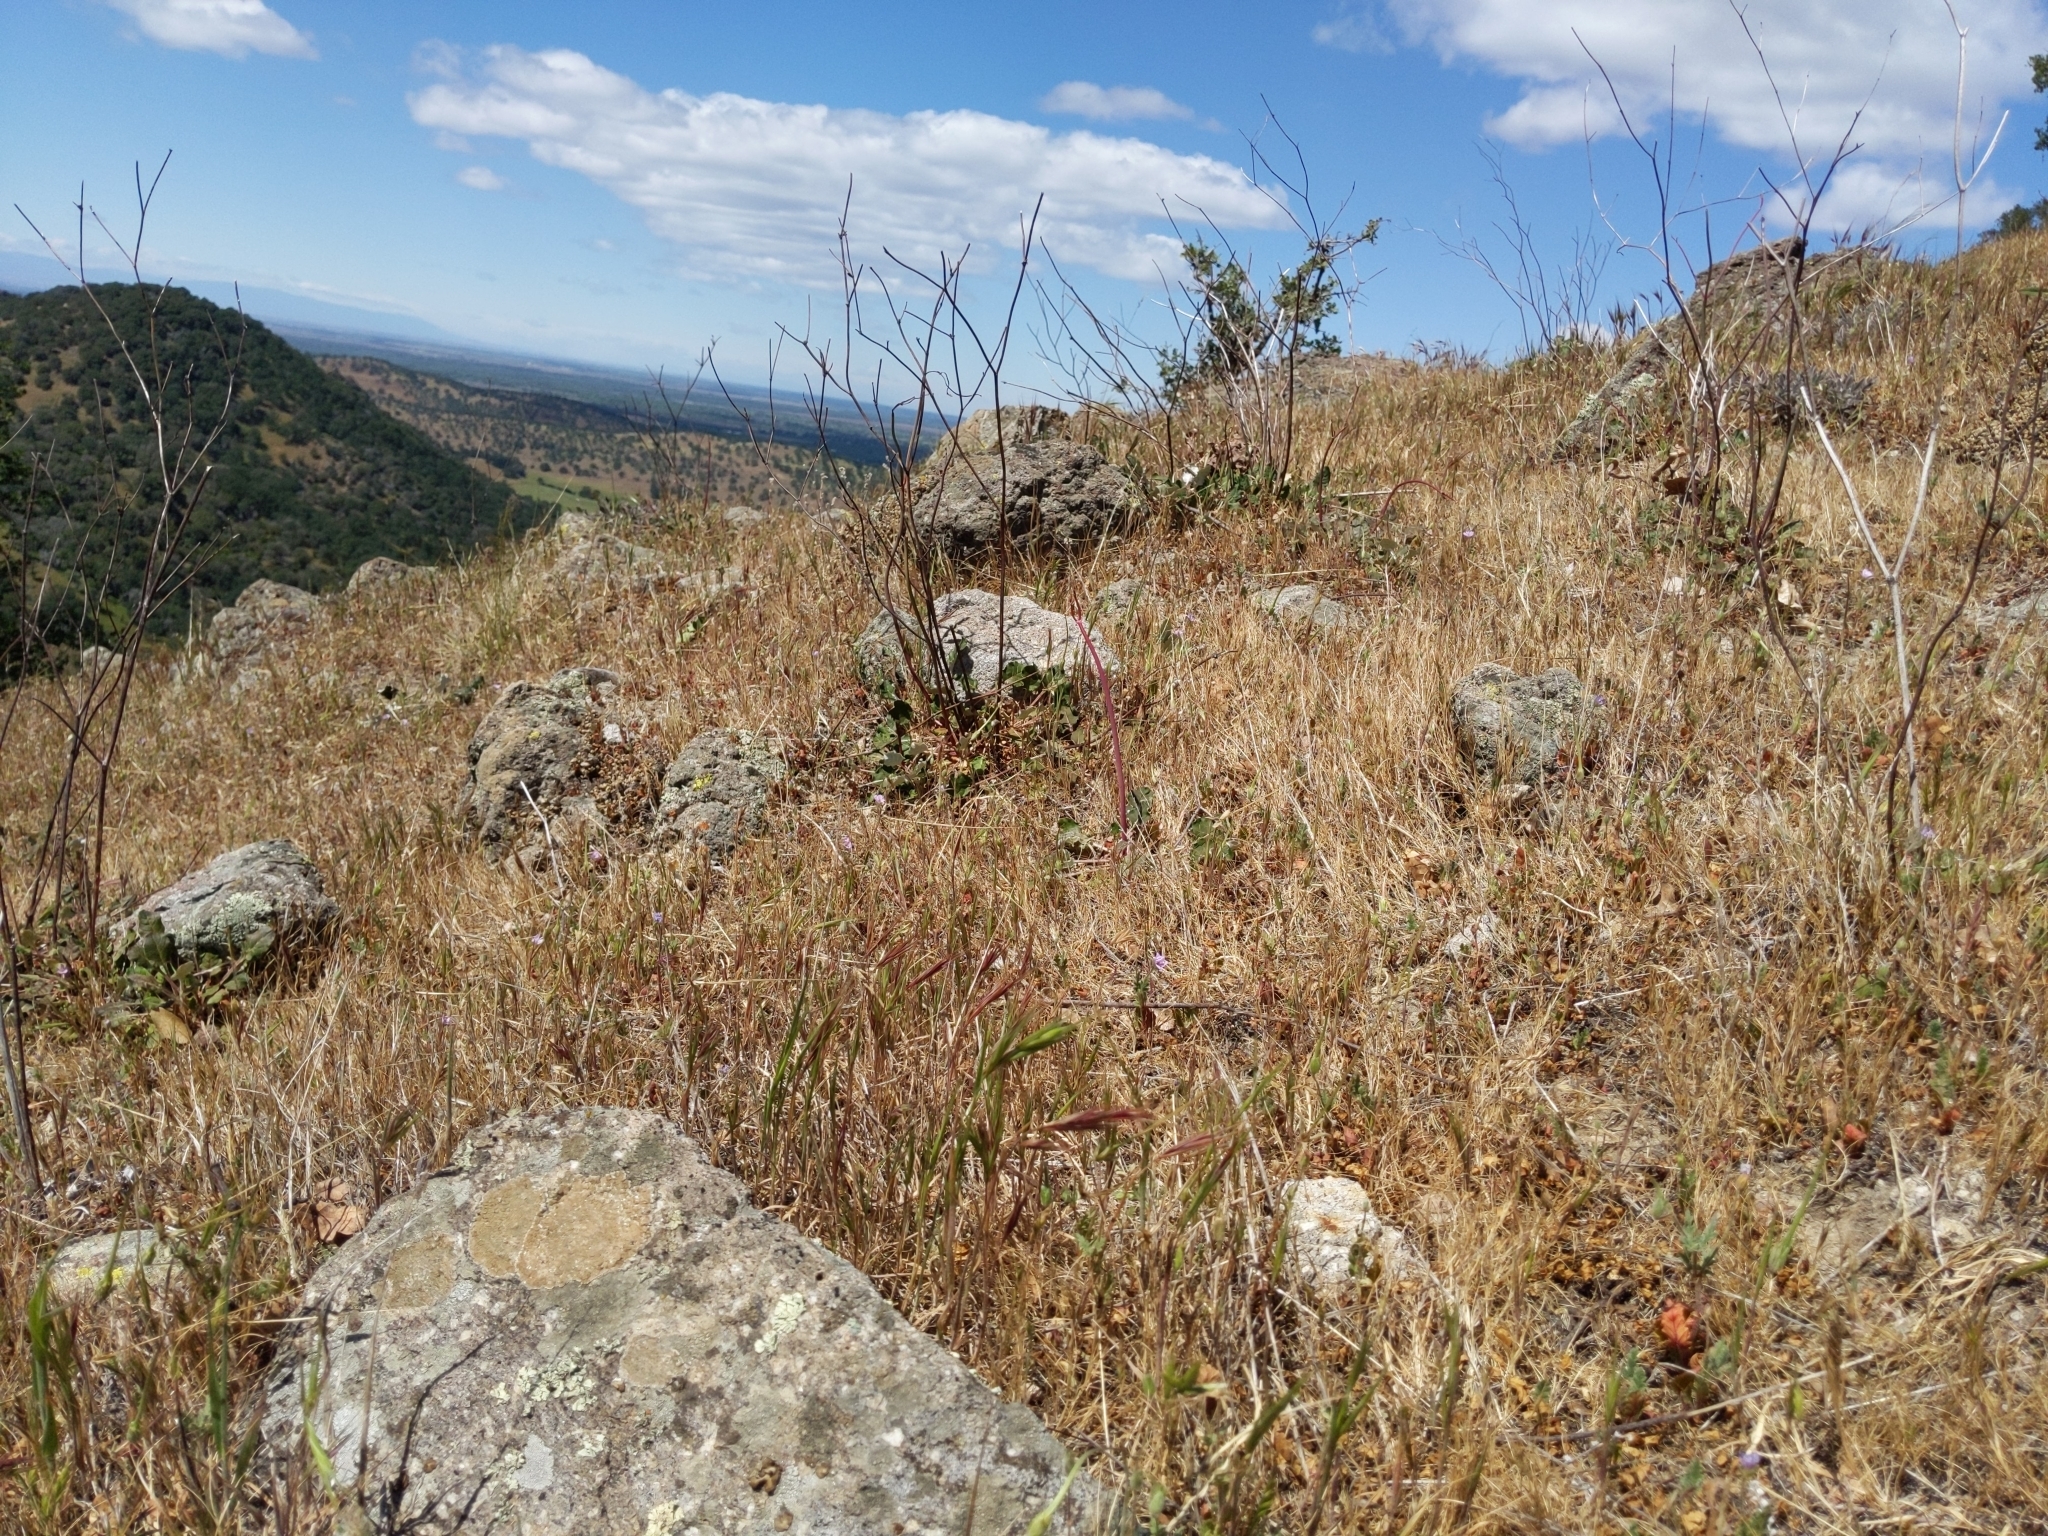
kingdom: Plantae
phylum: Tracheophyta
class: Magnoliopsida
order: Caryophyllales
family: Polygonaceae
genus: Eriogonum
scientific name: Eriogonum nudum
